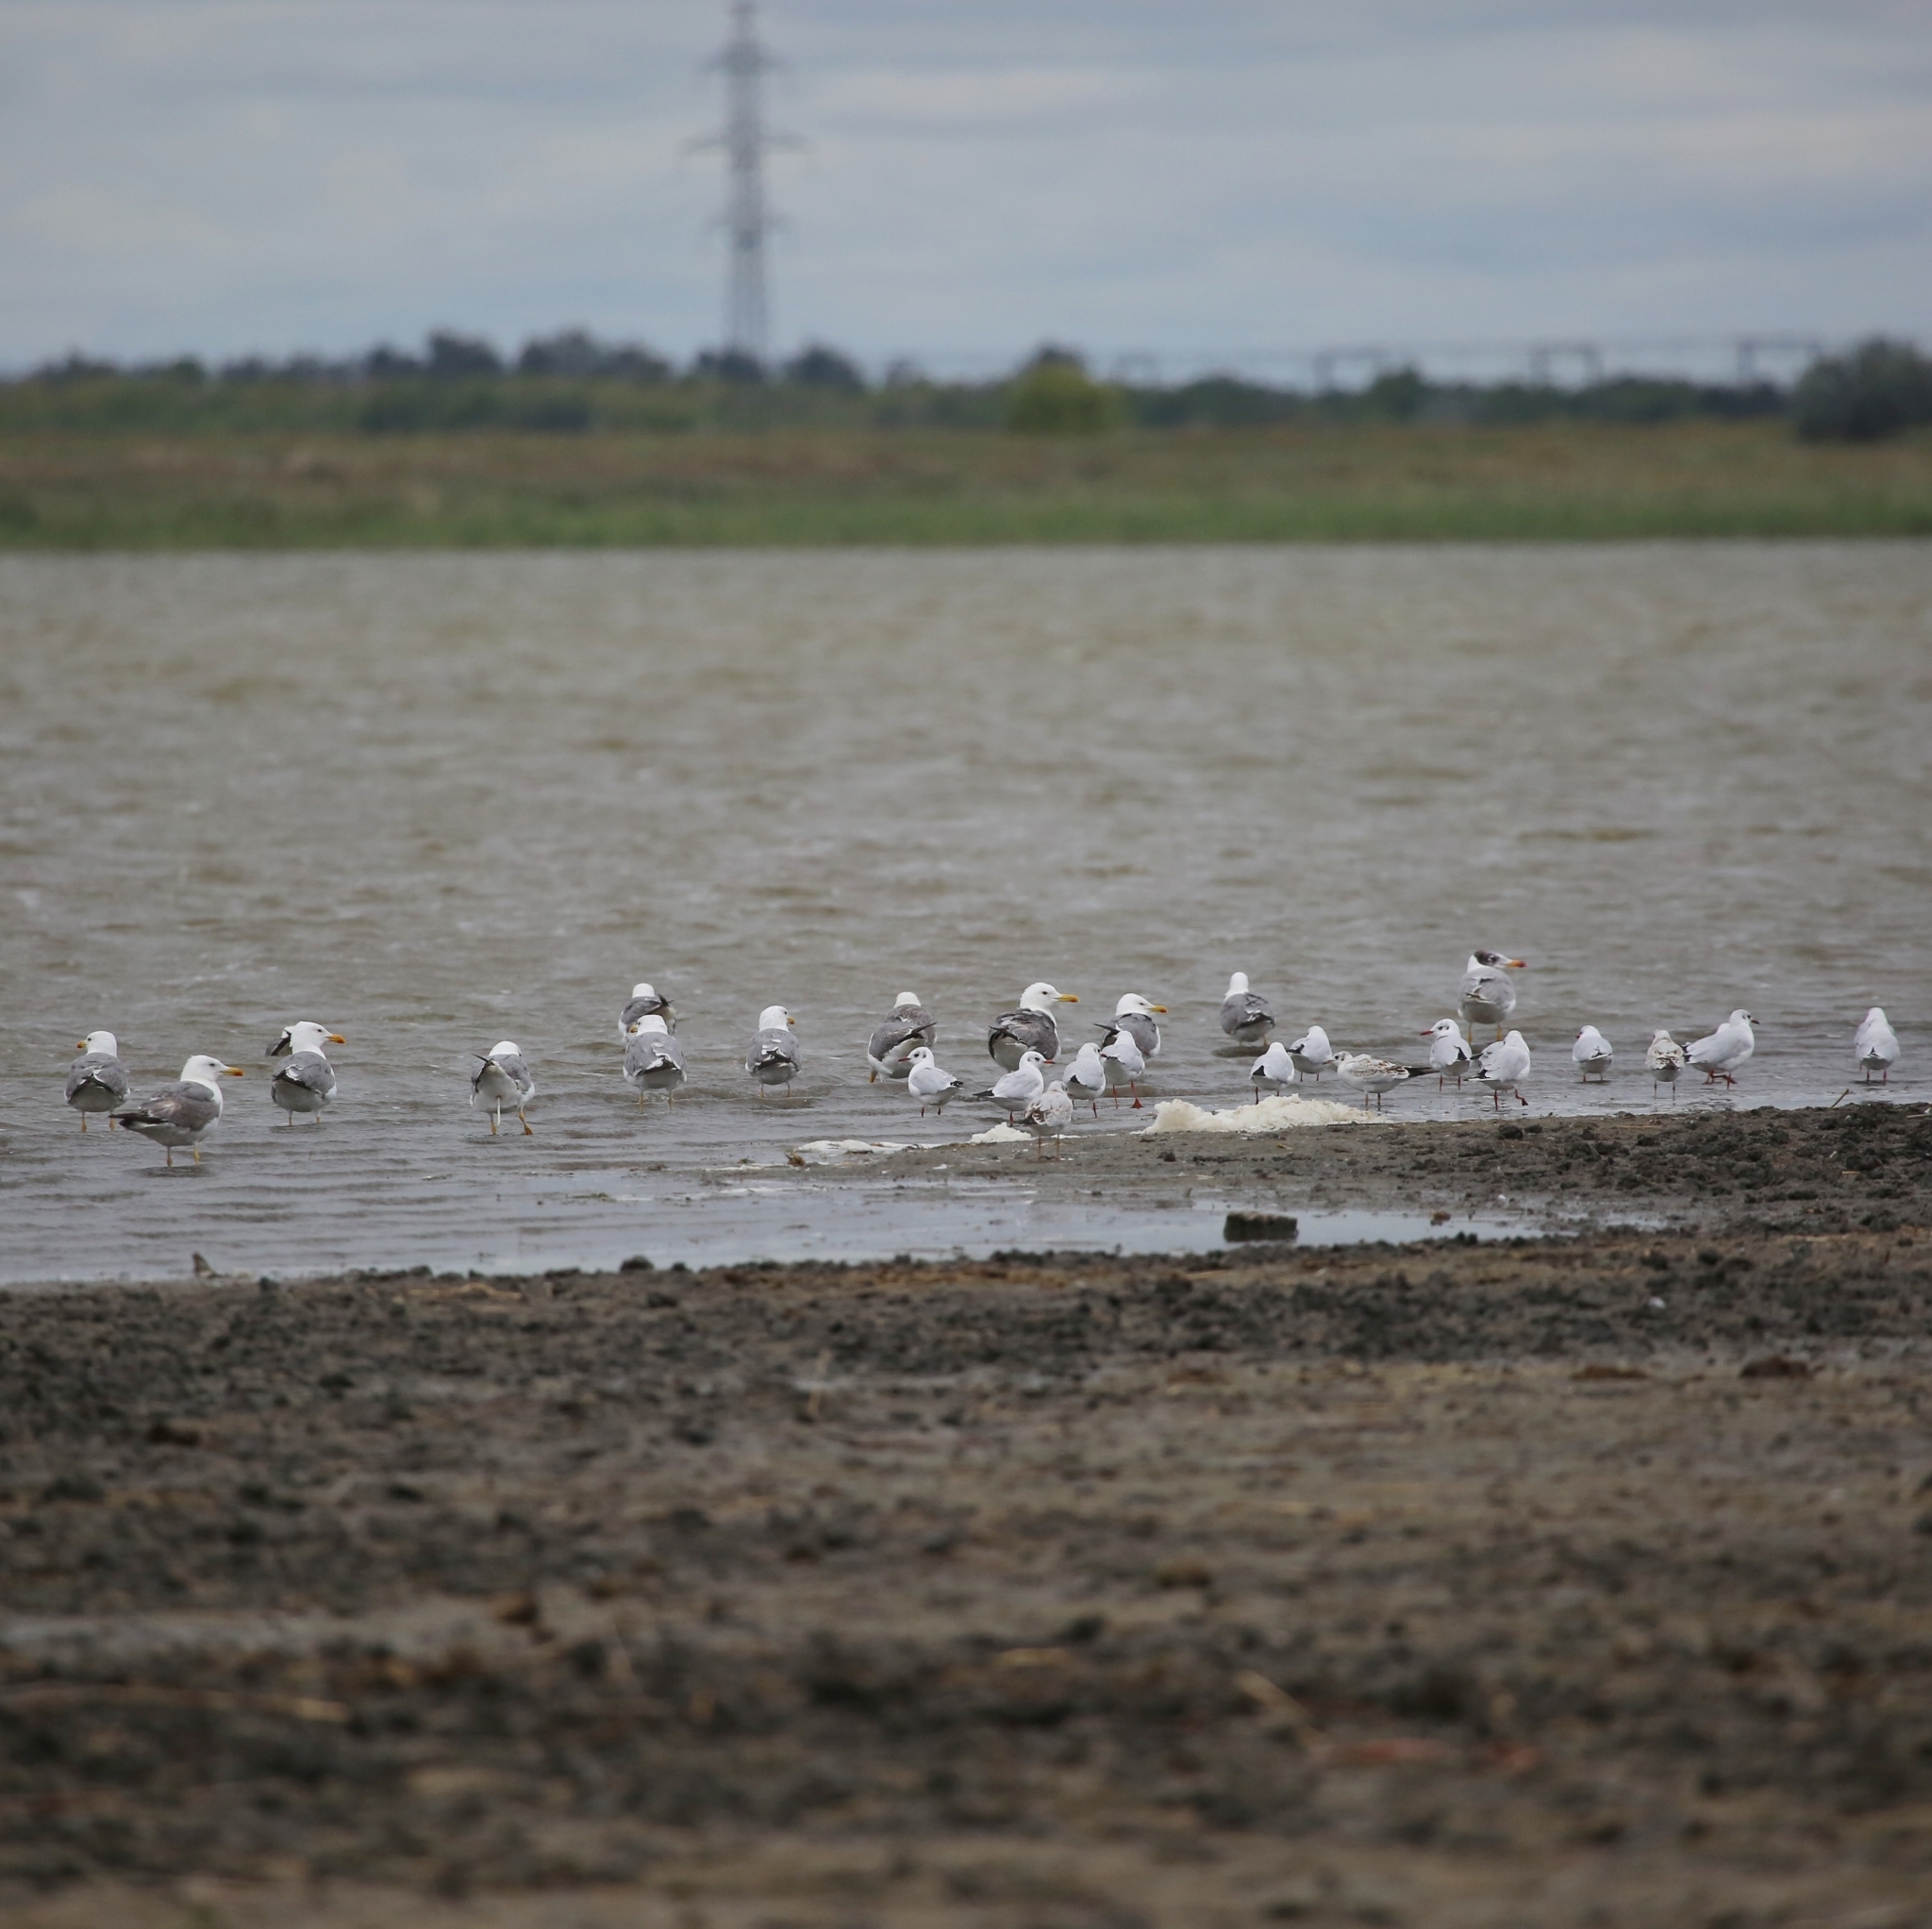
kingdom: Animalia
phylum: Chordata
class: Aves
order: Charadriiformes
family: Laridae
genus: Ichthyaetus
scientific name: Ichthyaetus ichthyaetus
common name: Pallas's gull
